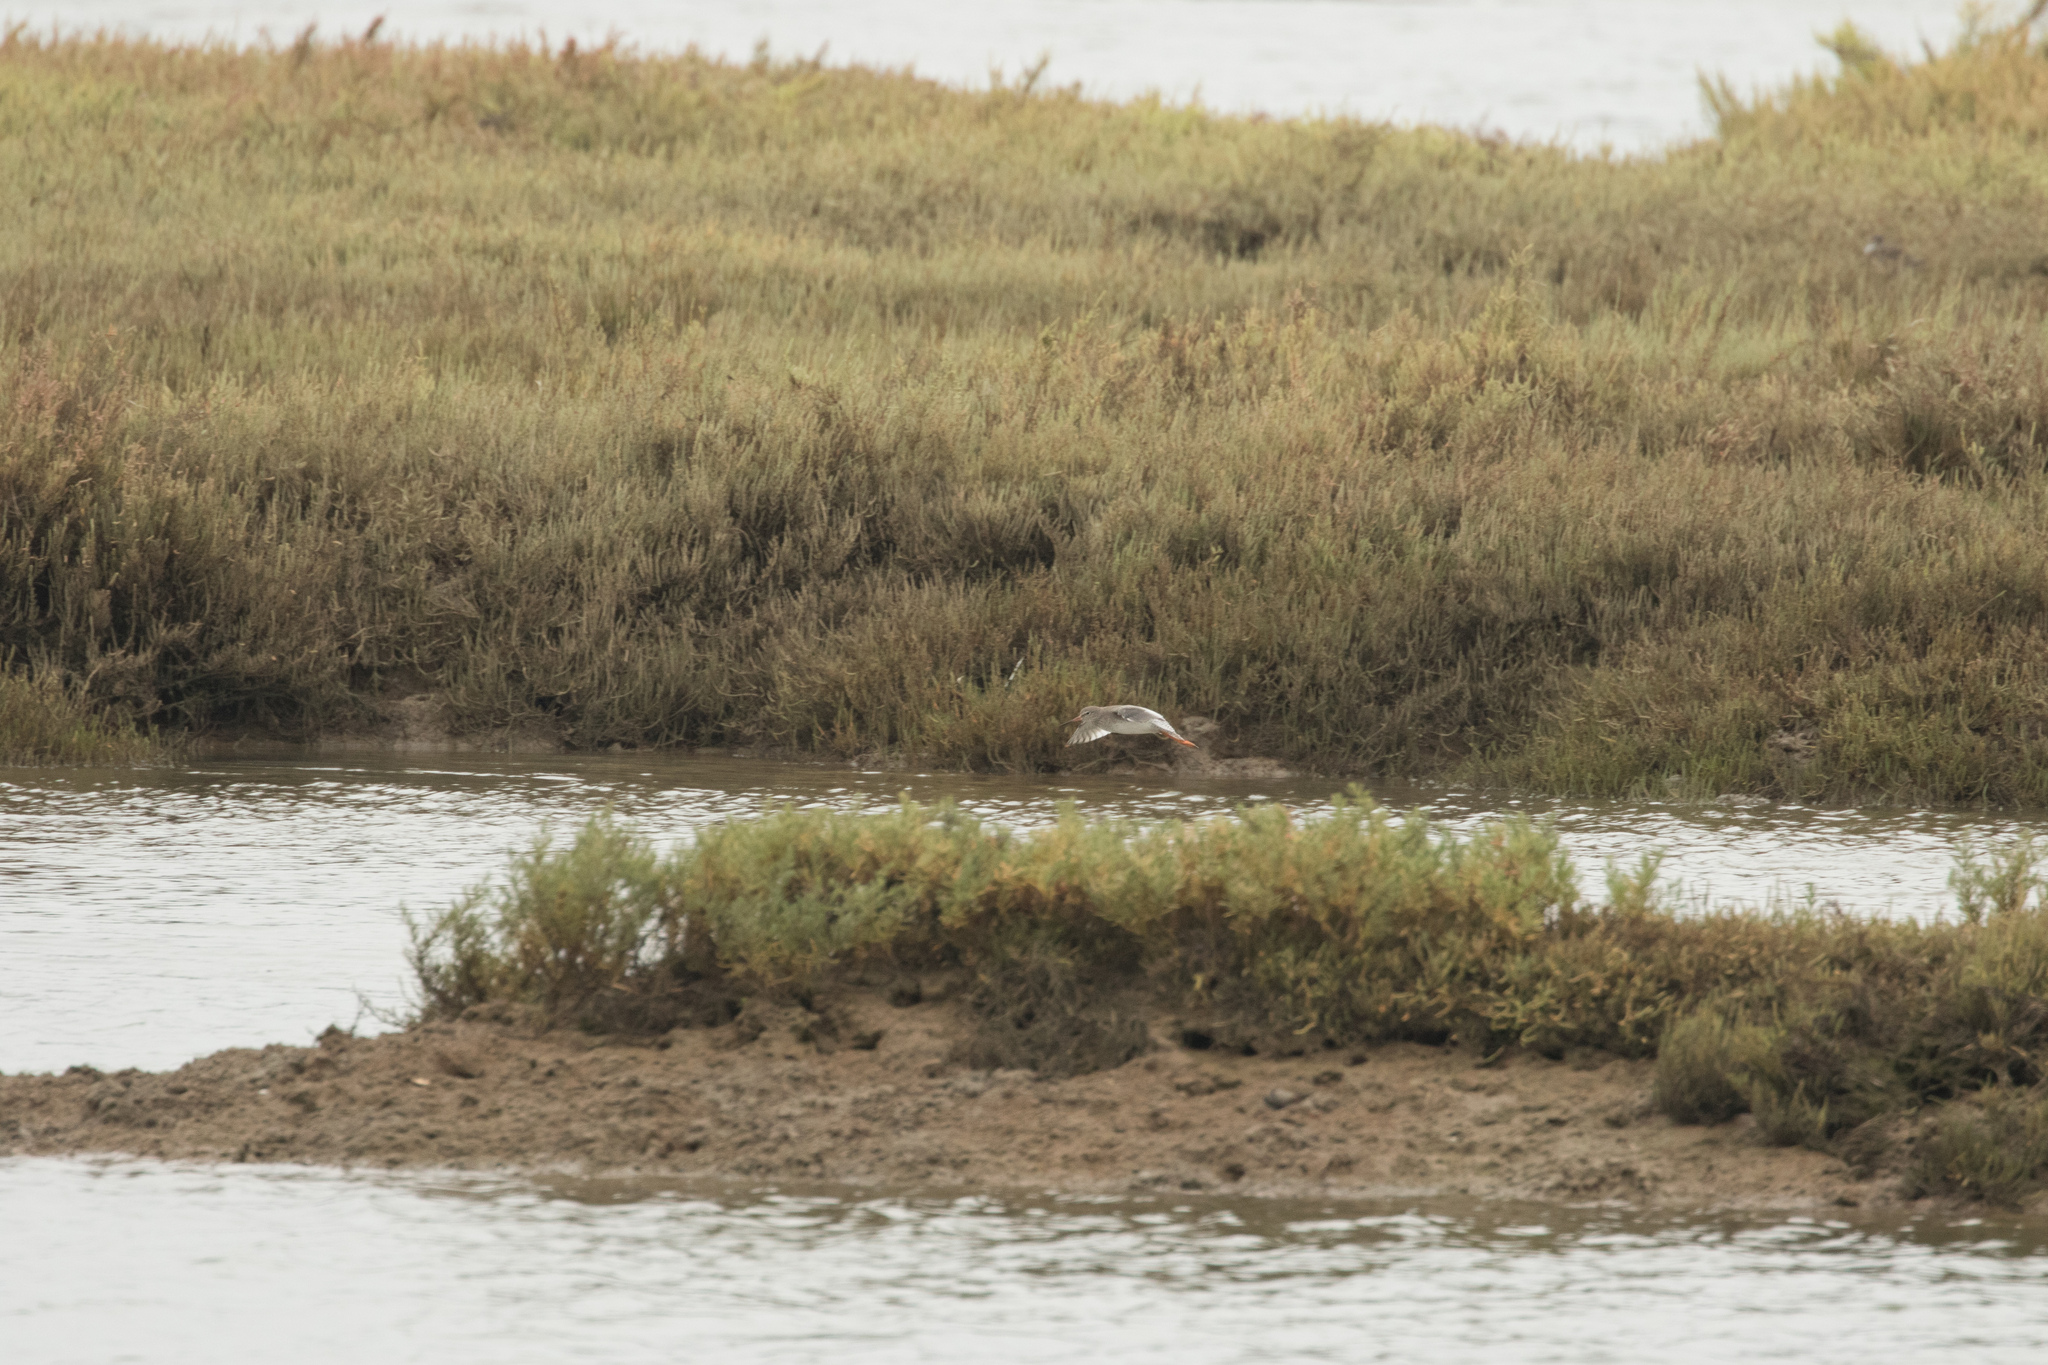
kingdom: Animalia
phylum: Chordata
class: Aves
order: Charadriiformes
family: Scolopacidae
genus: Tringa
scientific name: Tringa totanus
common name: Common redshank
